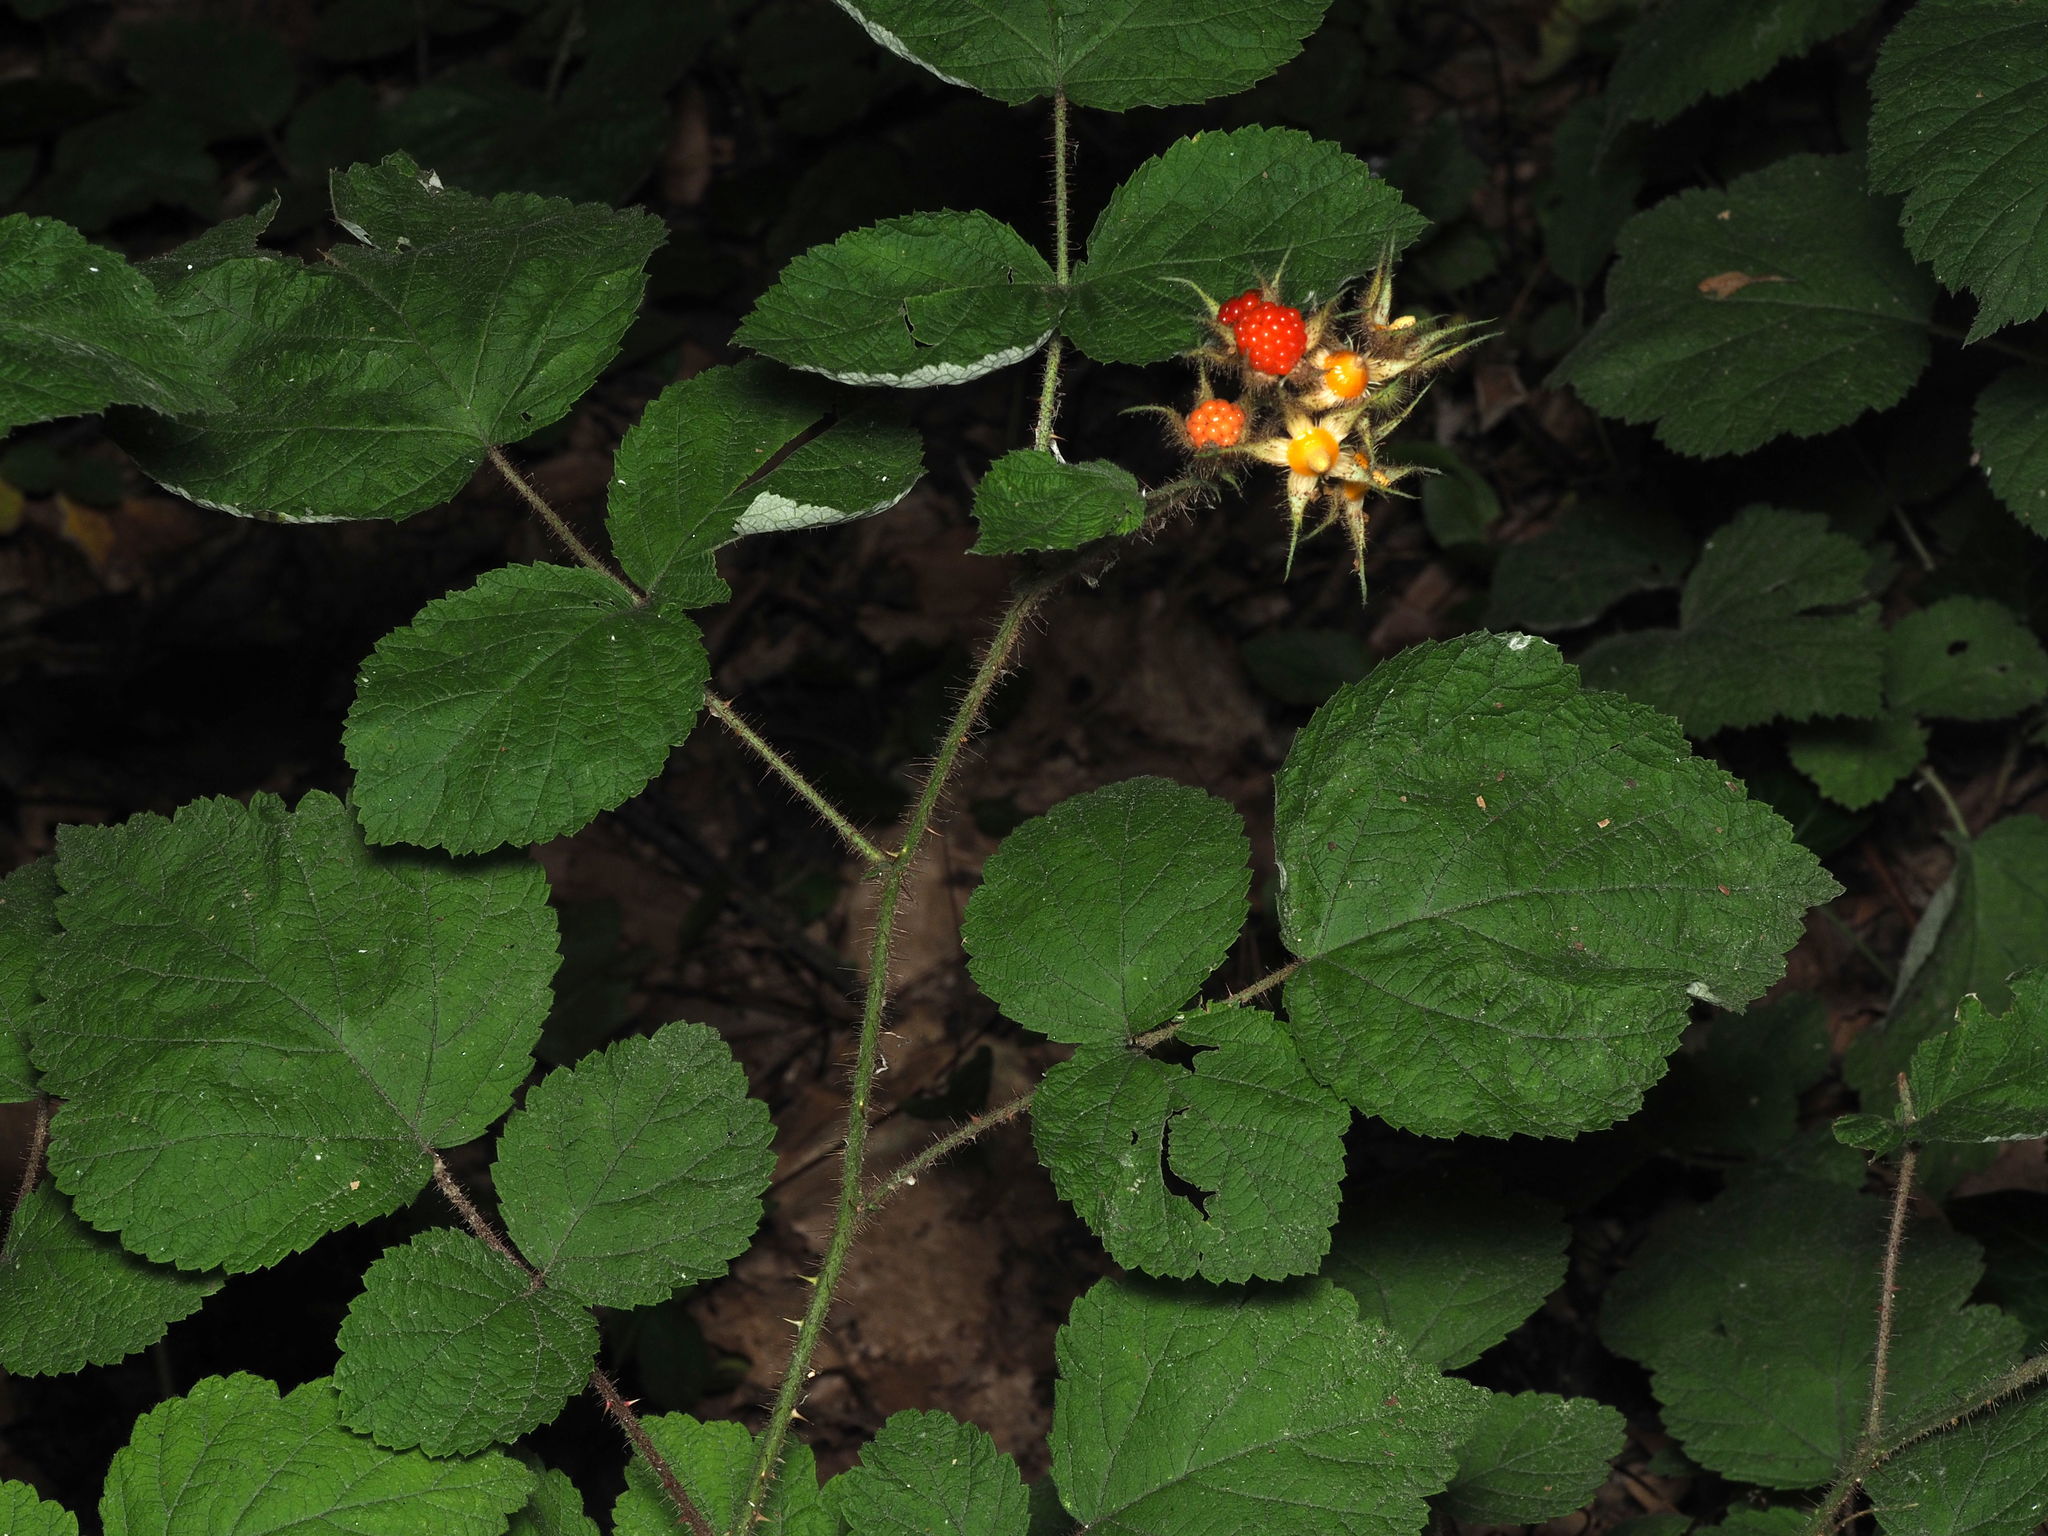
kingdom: Plantae
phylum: Tracheophyta
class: Magnoliopsida
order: Rosales
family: Rosaceae
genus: Rubus
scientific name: Rubus phoenicolasius
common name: Japanese wineberry
